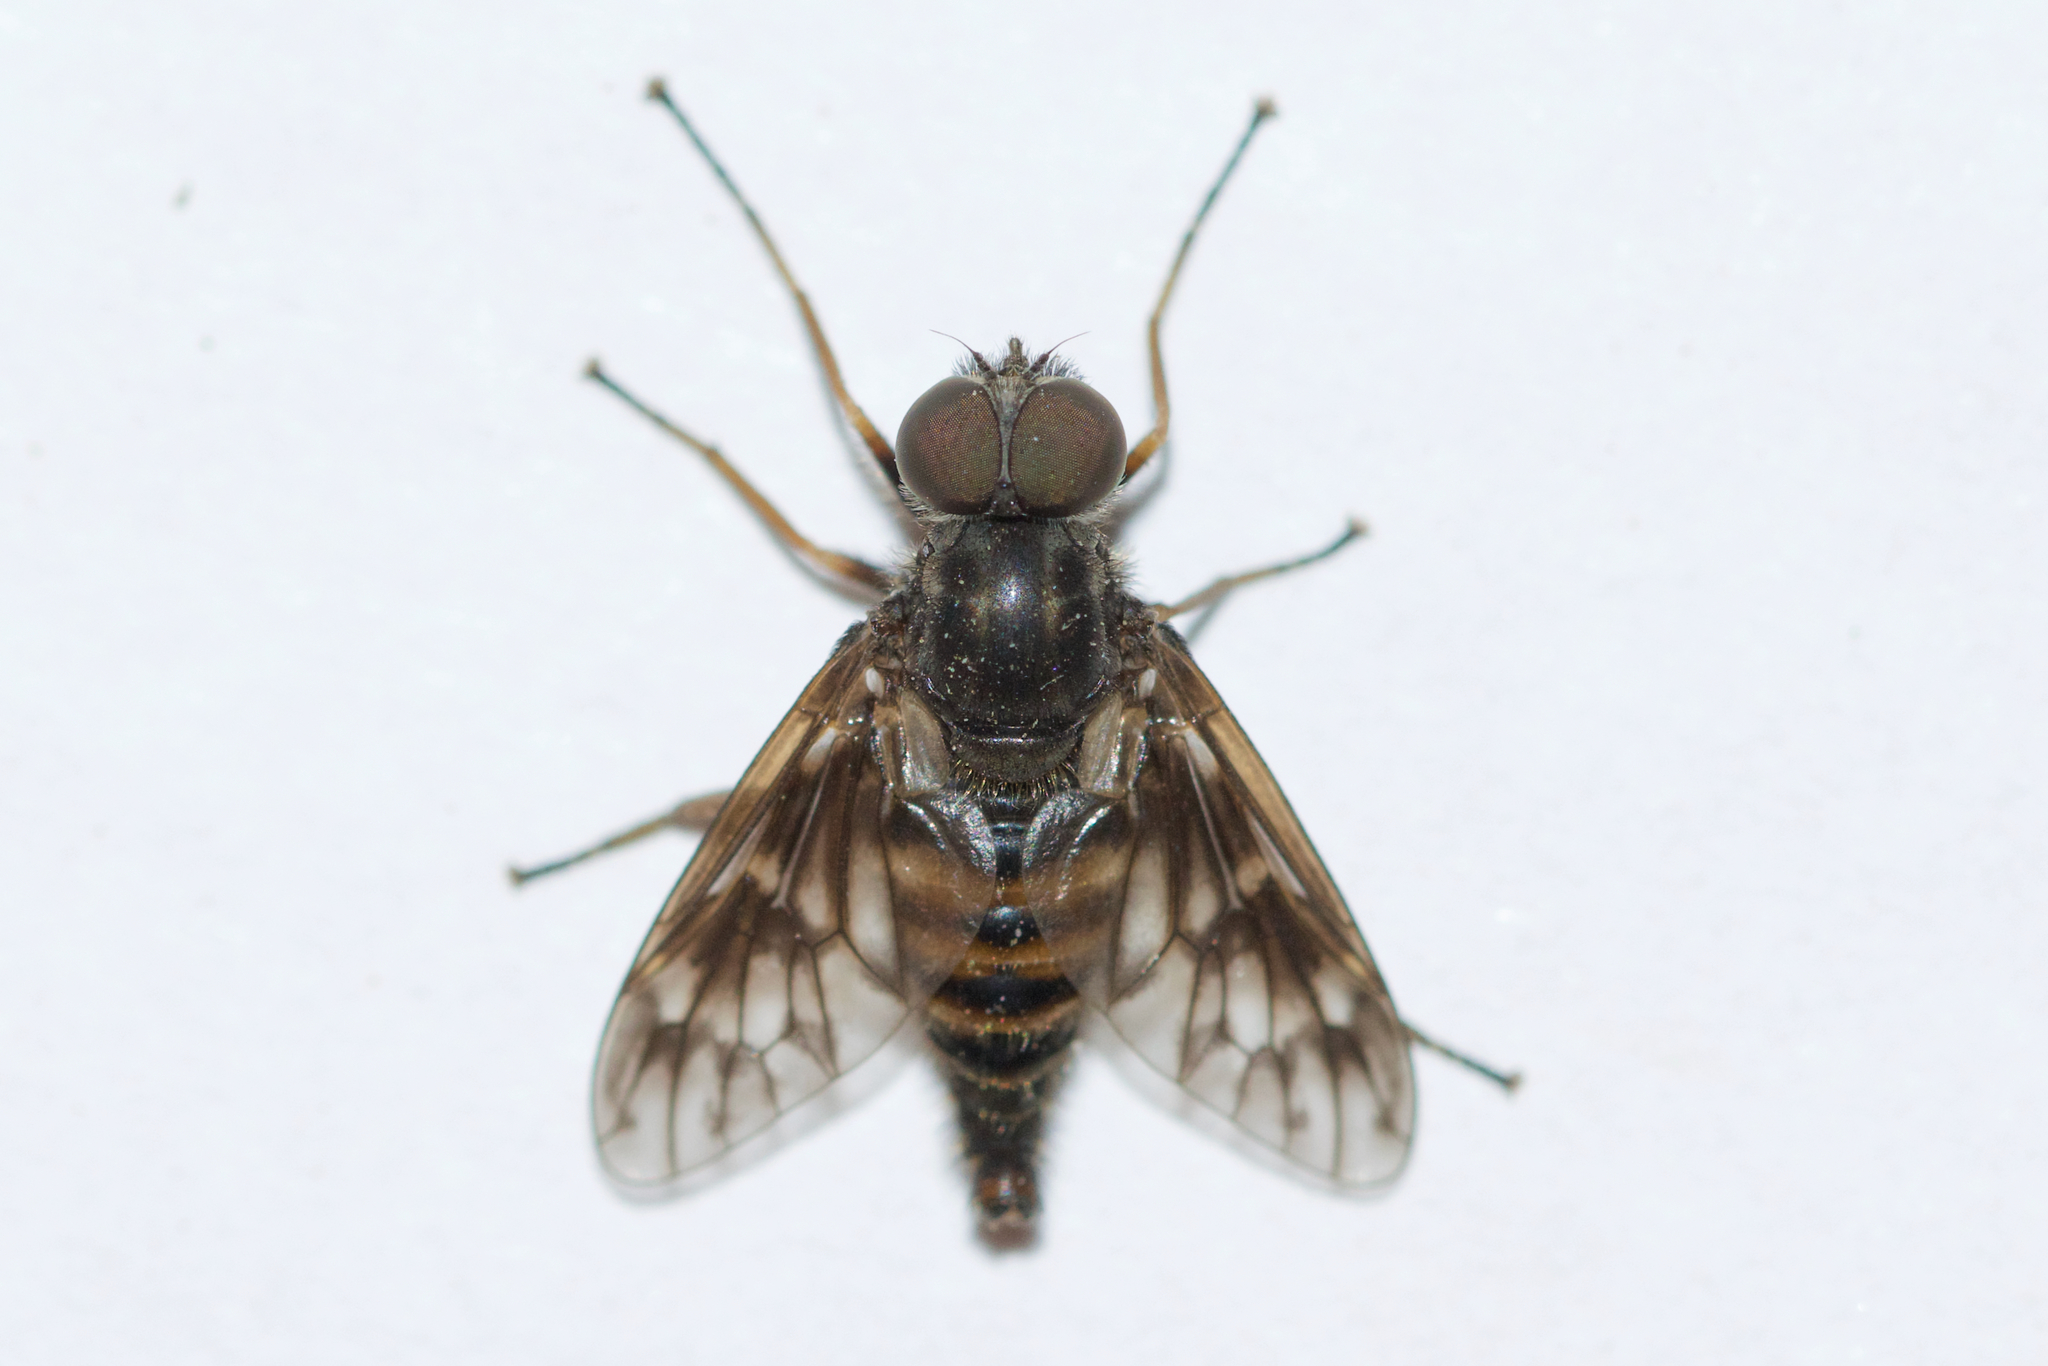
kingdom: Animalia
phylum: Arthropoda
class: Insecta
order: Diptera
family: Athericidae
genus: Atherix
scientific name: Atherix lantha
